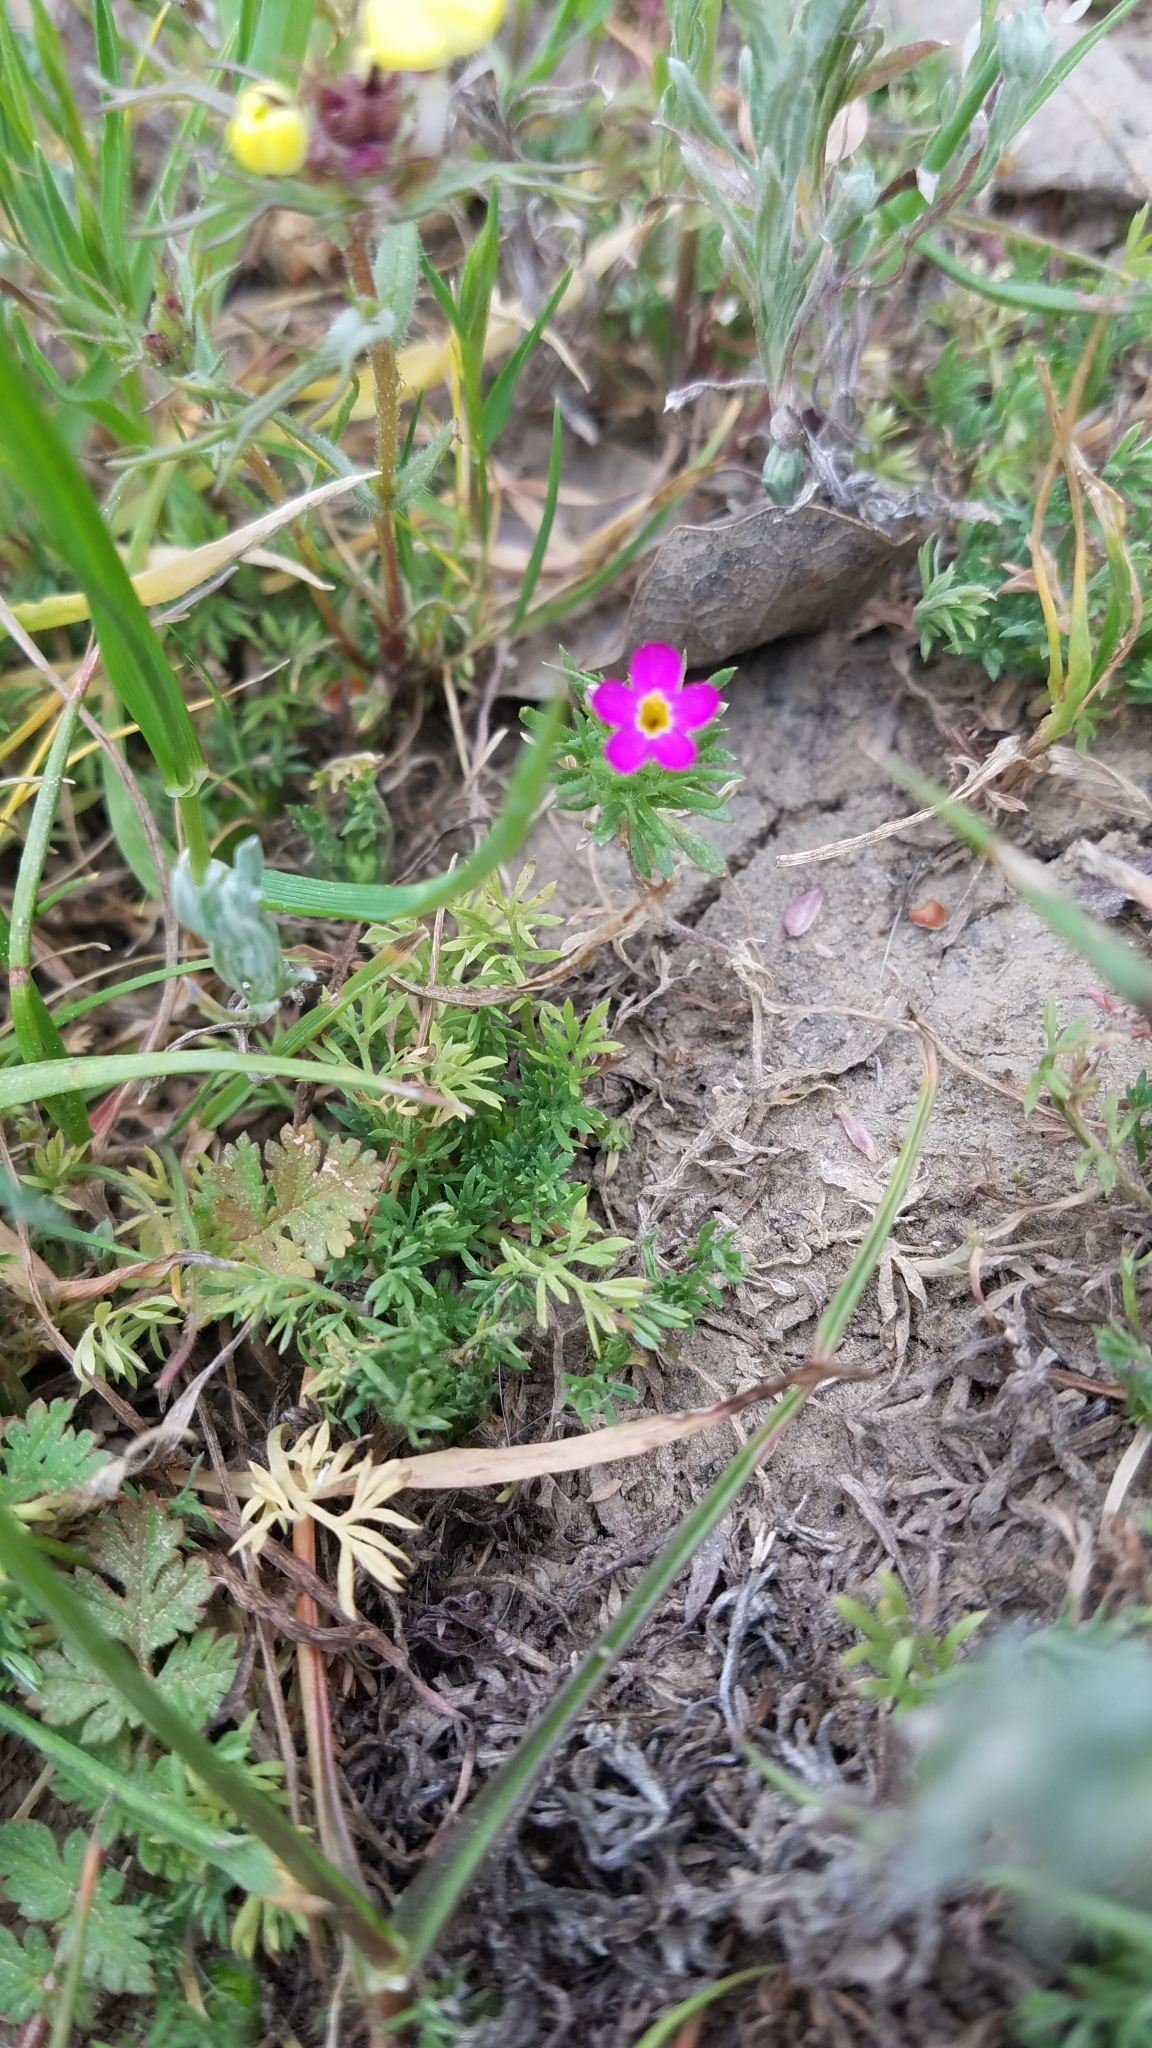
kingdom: Plantae
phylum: Tracheophyta
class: Magnoliopsida
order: Ericales
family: Polemoniaceae
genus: Leptosiphon
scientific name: Leptosiphon bicolor
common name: True babystars
